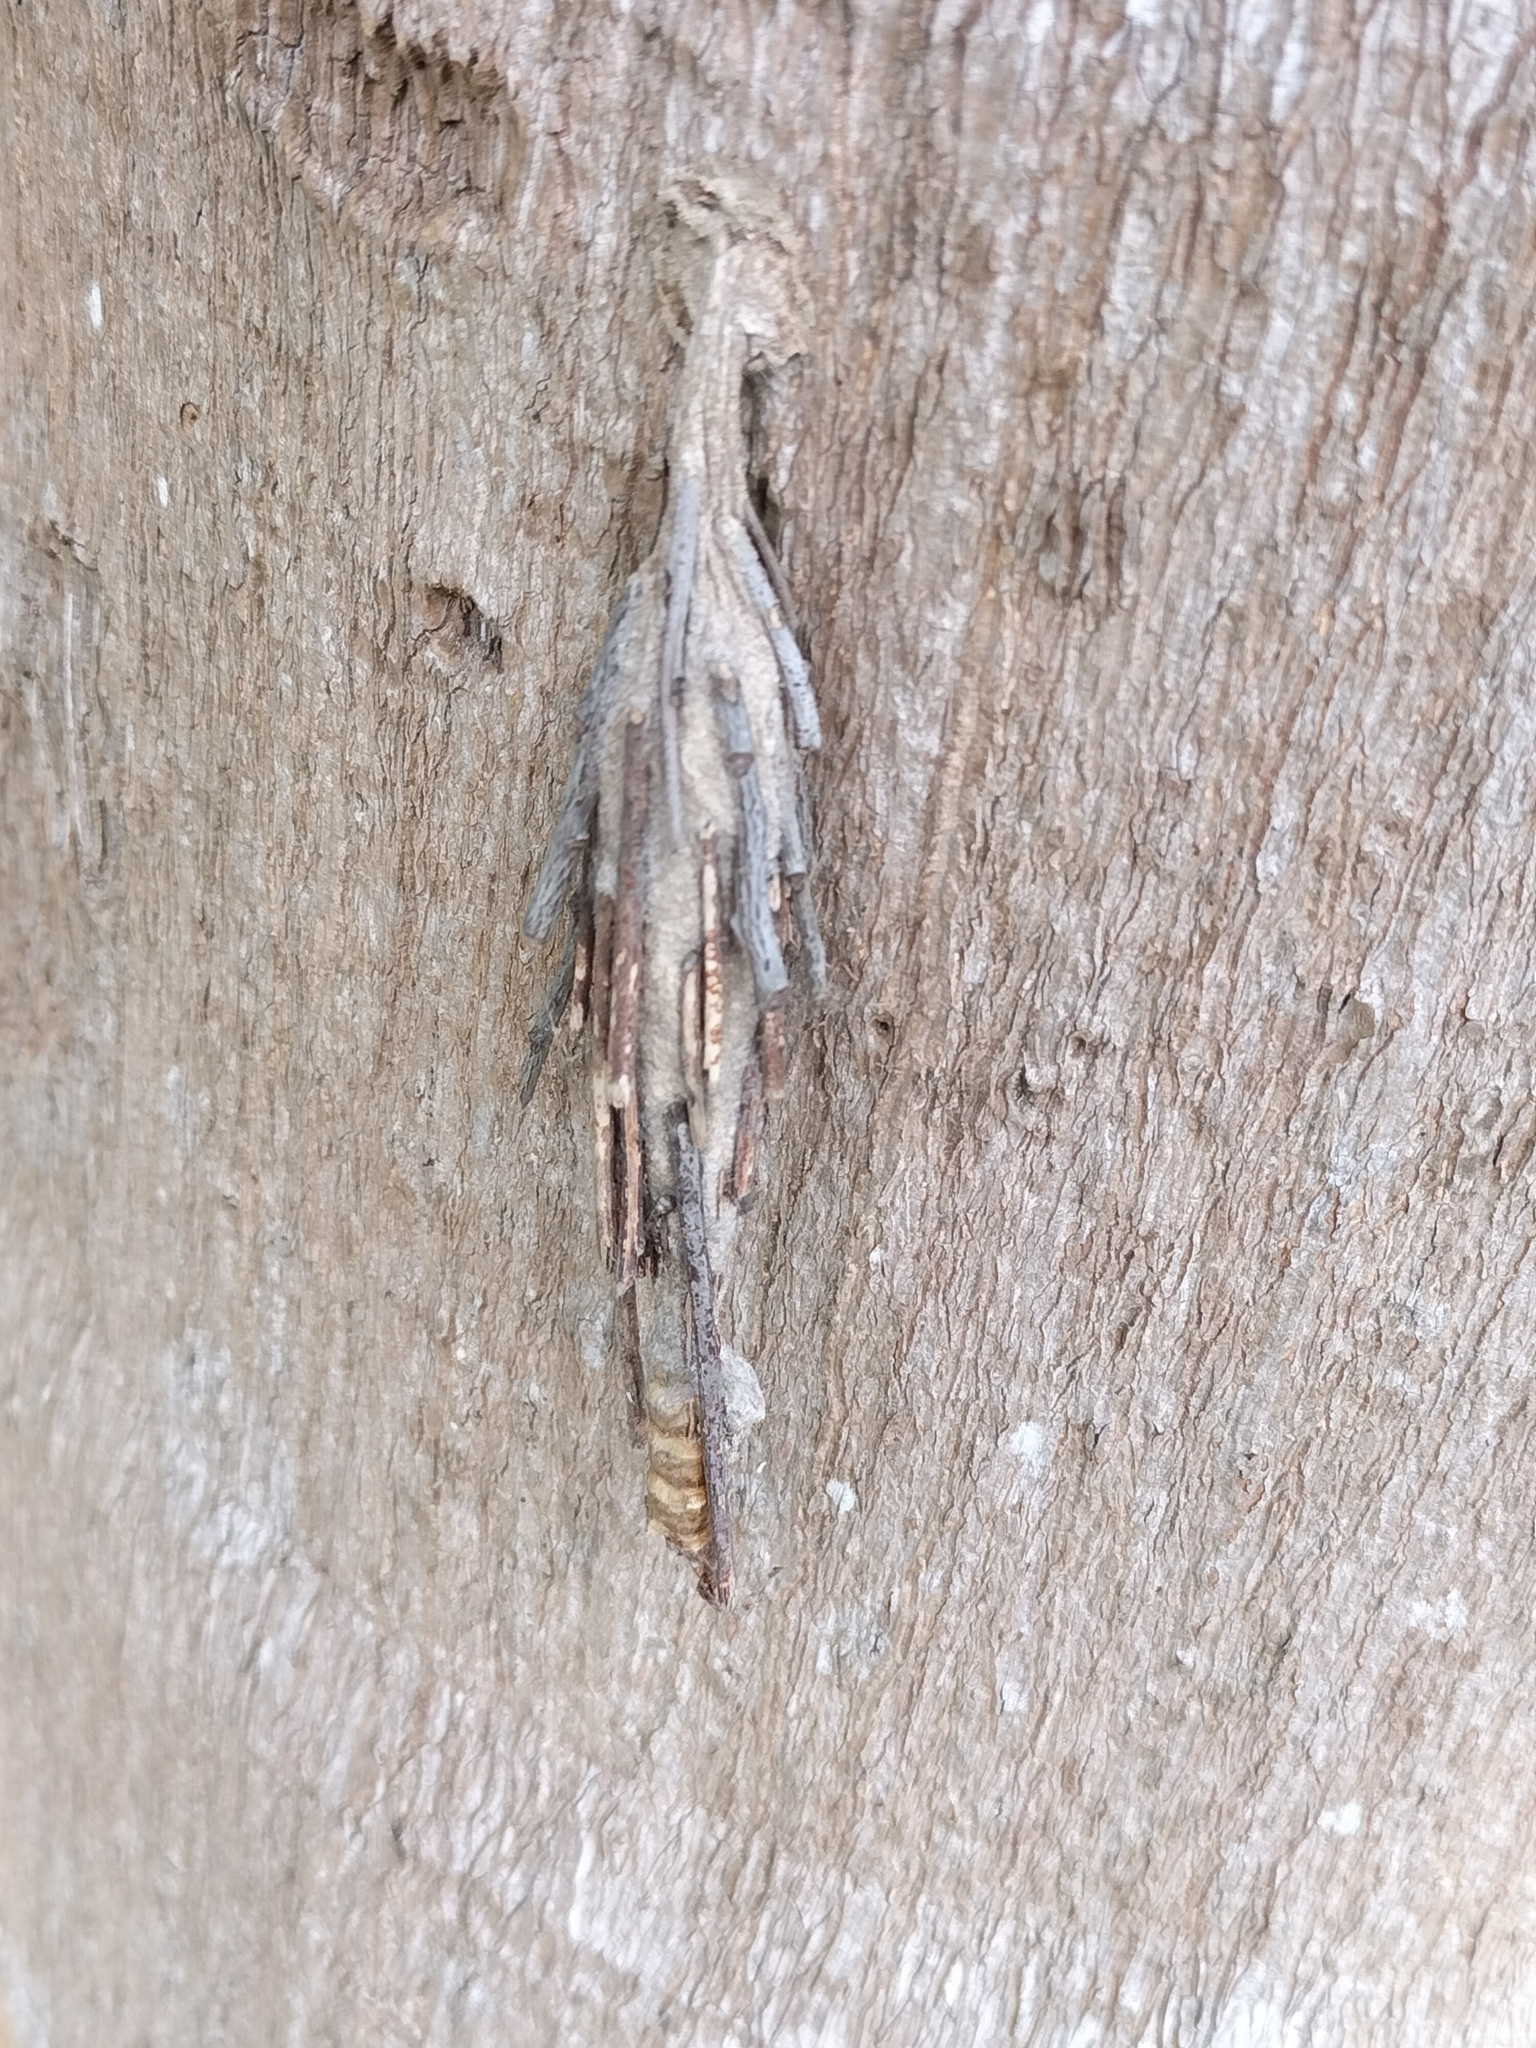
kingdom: Animalia
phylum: Arthropoda
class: Insecta
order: Lepidoptera
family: Psychidae
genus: Metura
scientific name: Metura elongatus
